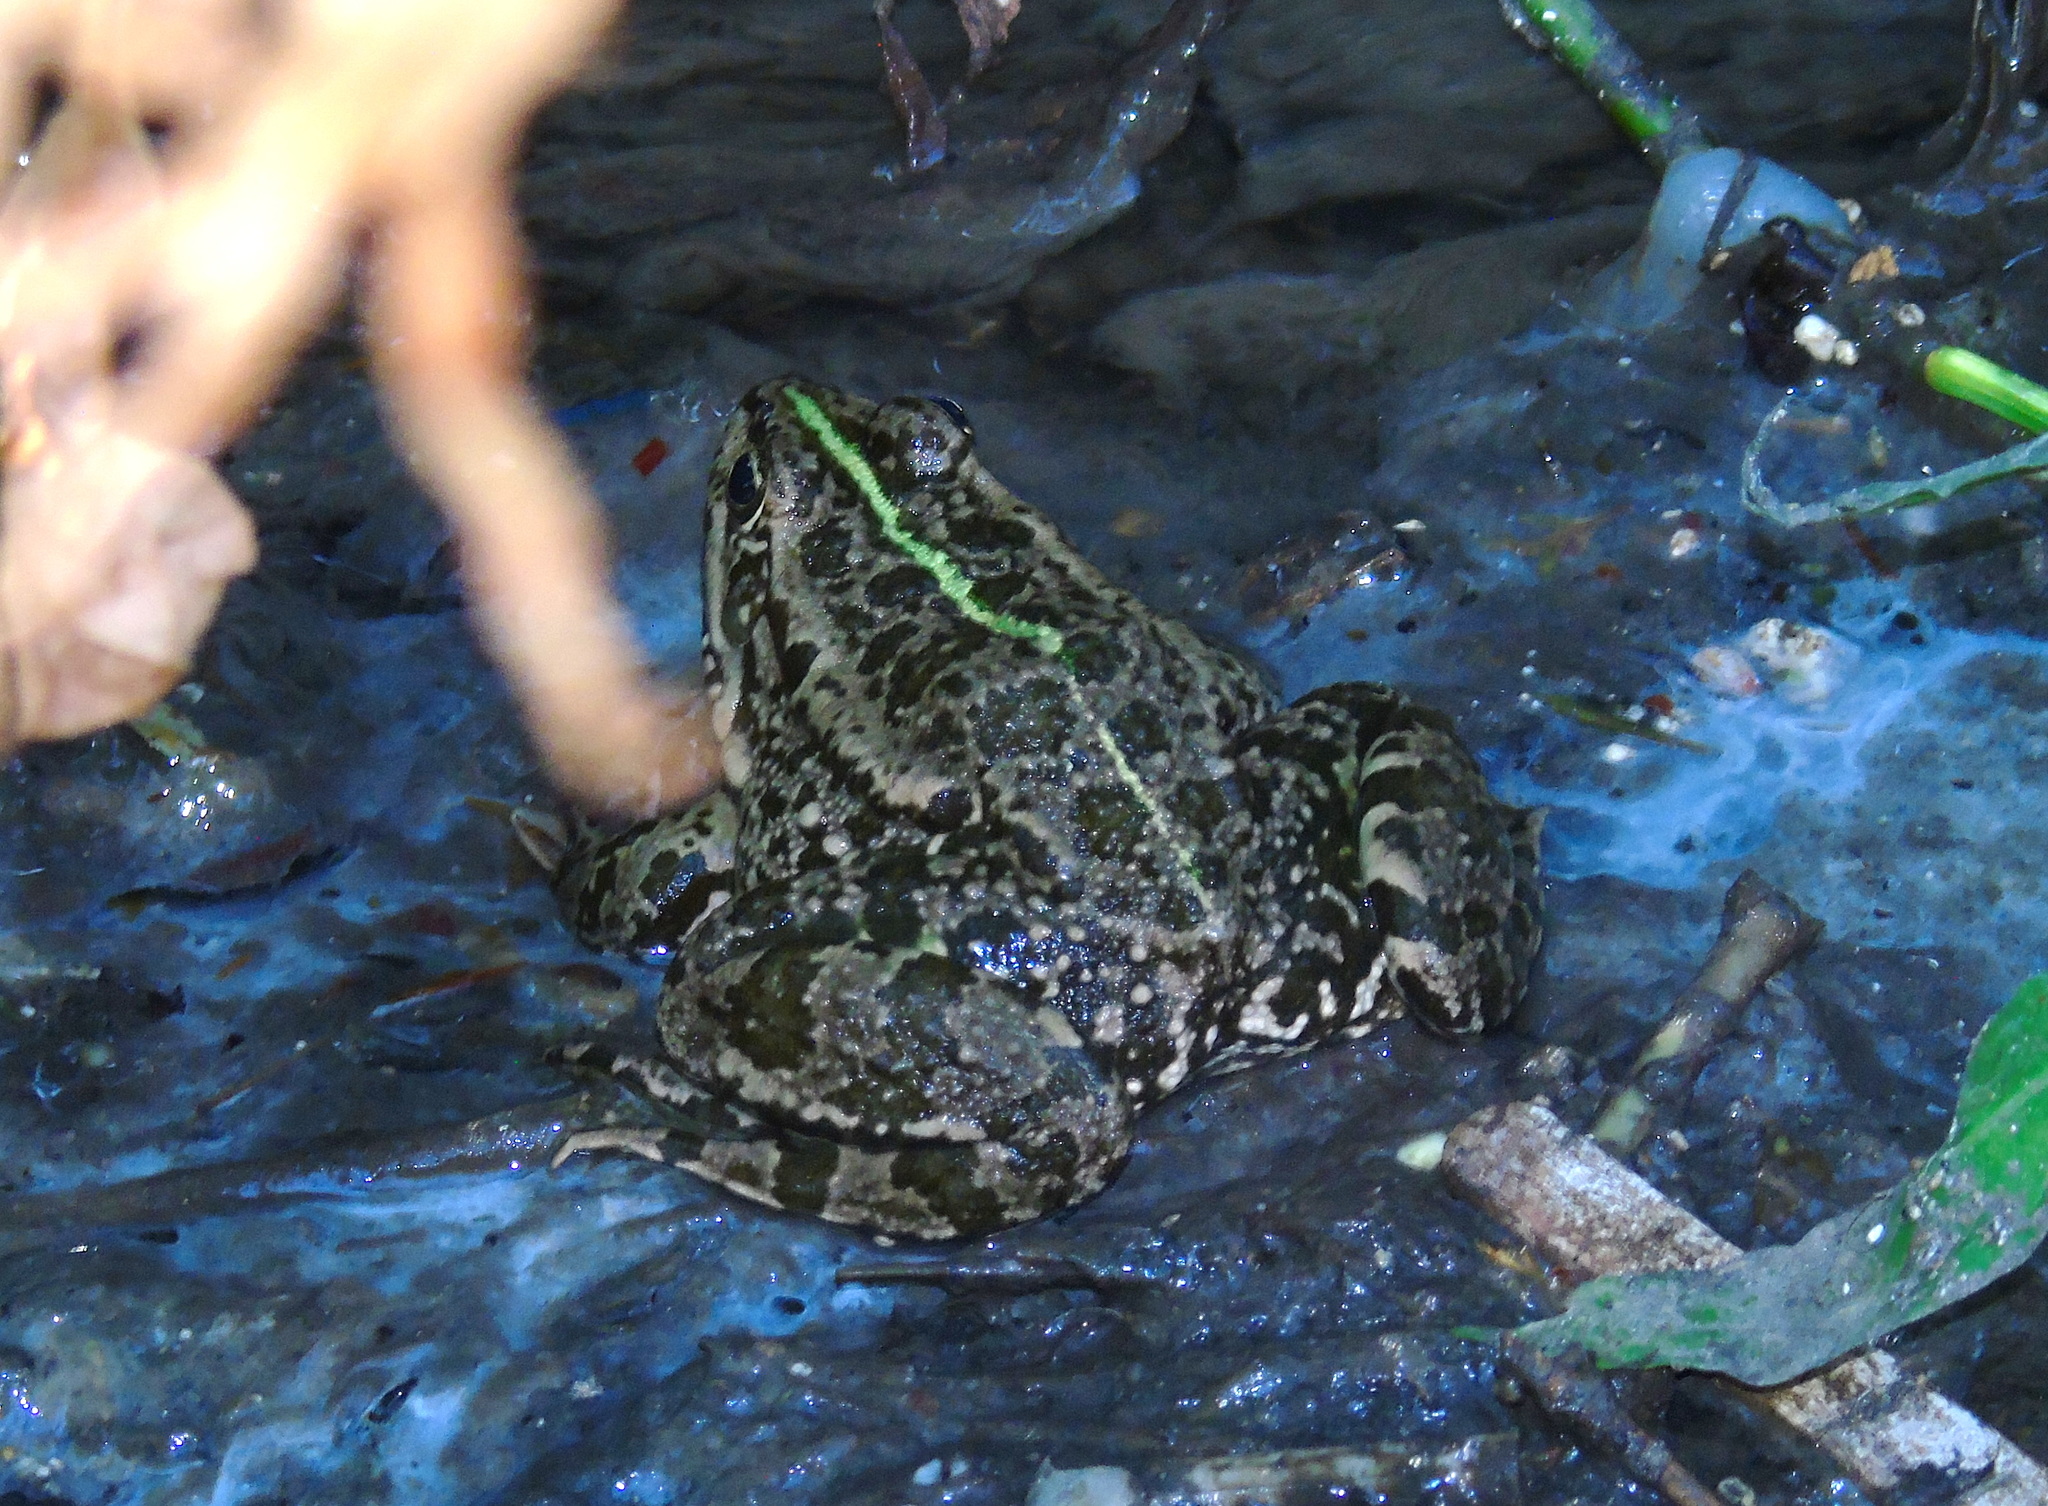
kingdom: Animalia
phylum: Chordata
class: Amphibia
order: Anura
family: Ranidae
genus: Pelophylax
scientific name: Pelophylax ridibundus
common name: Marsh frog
